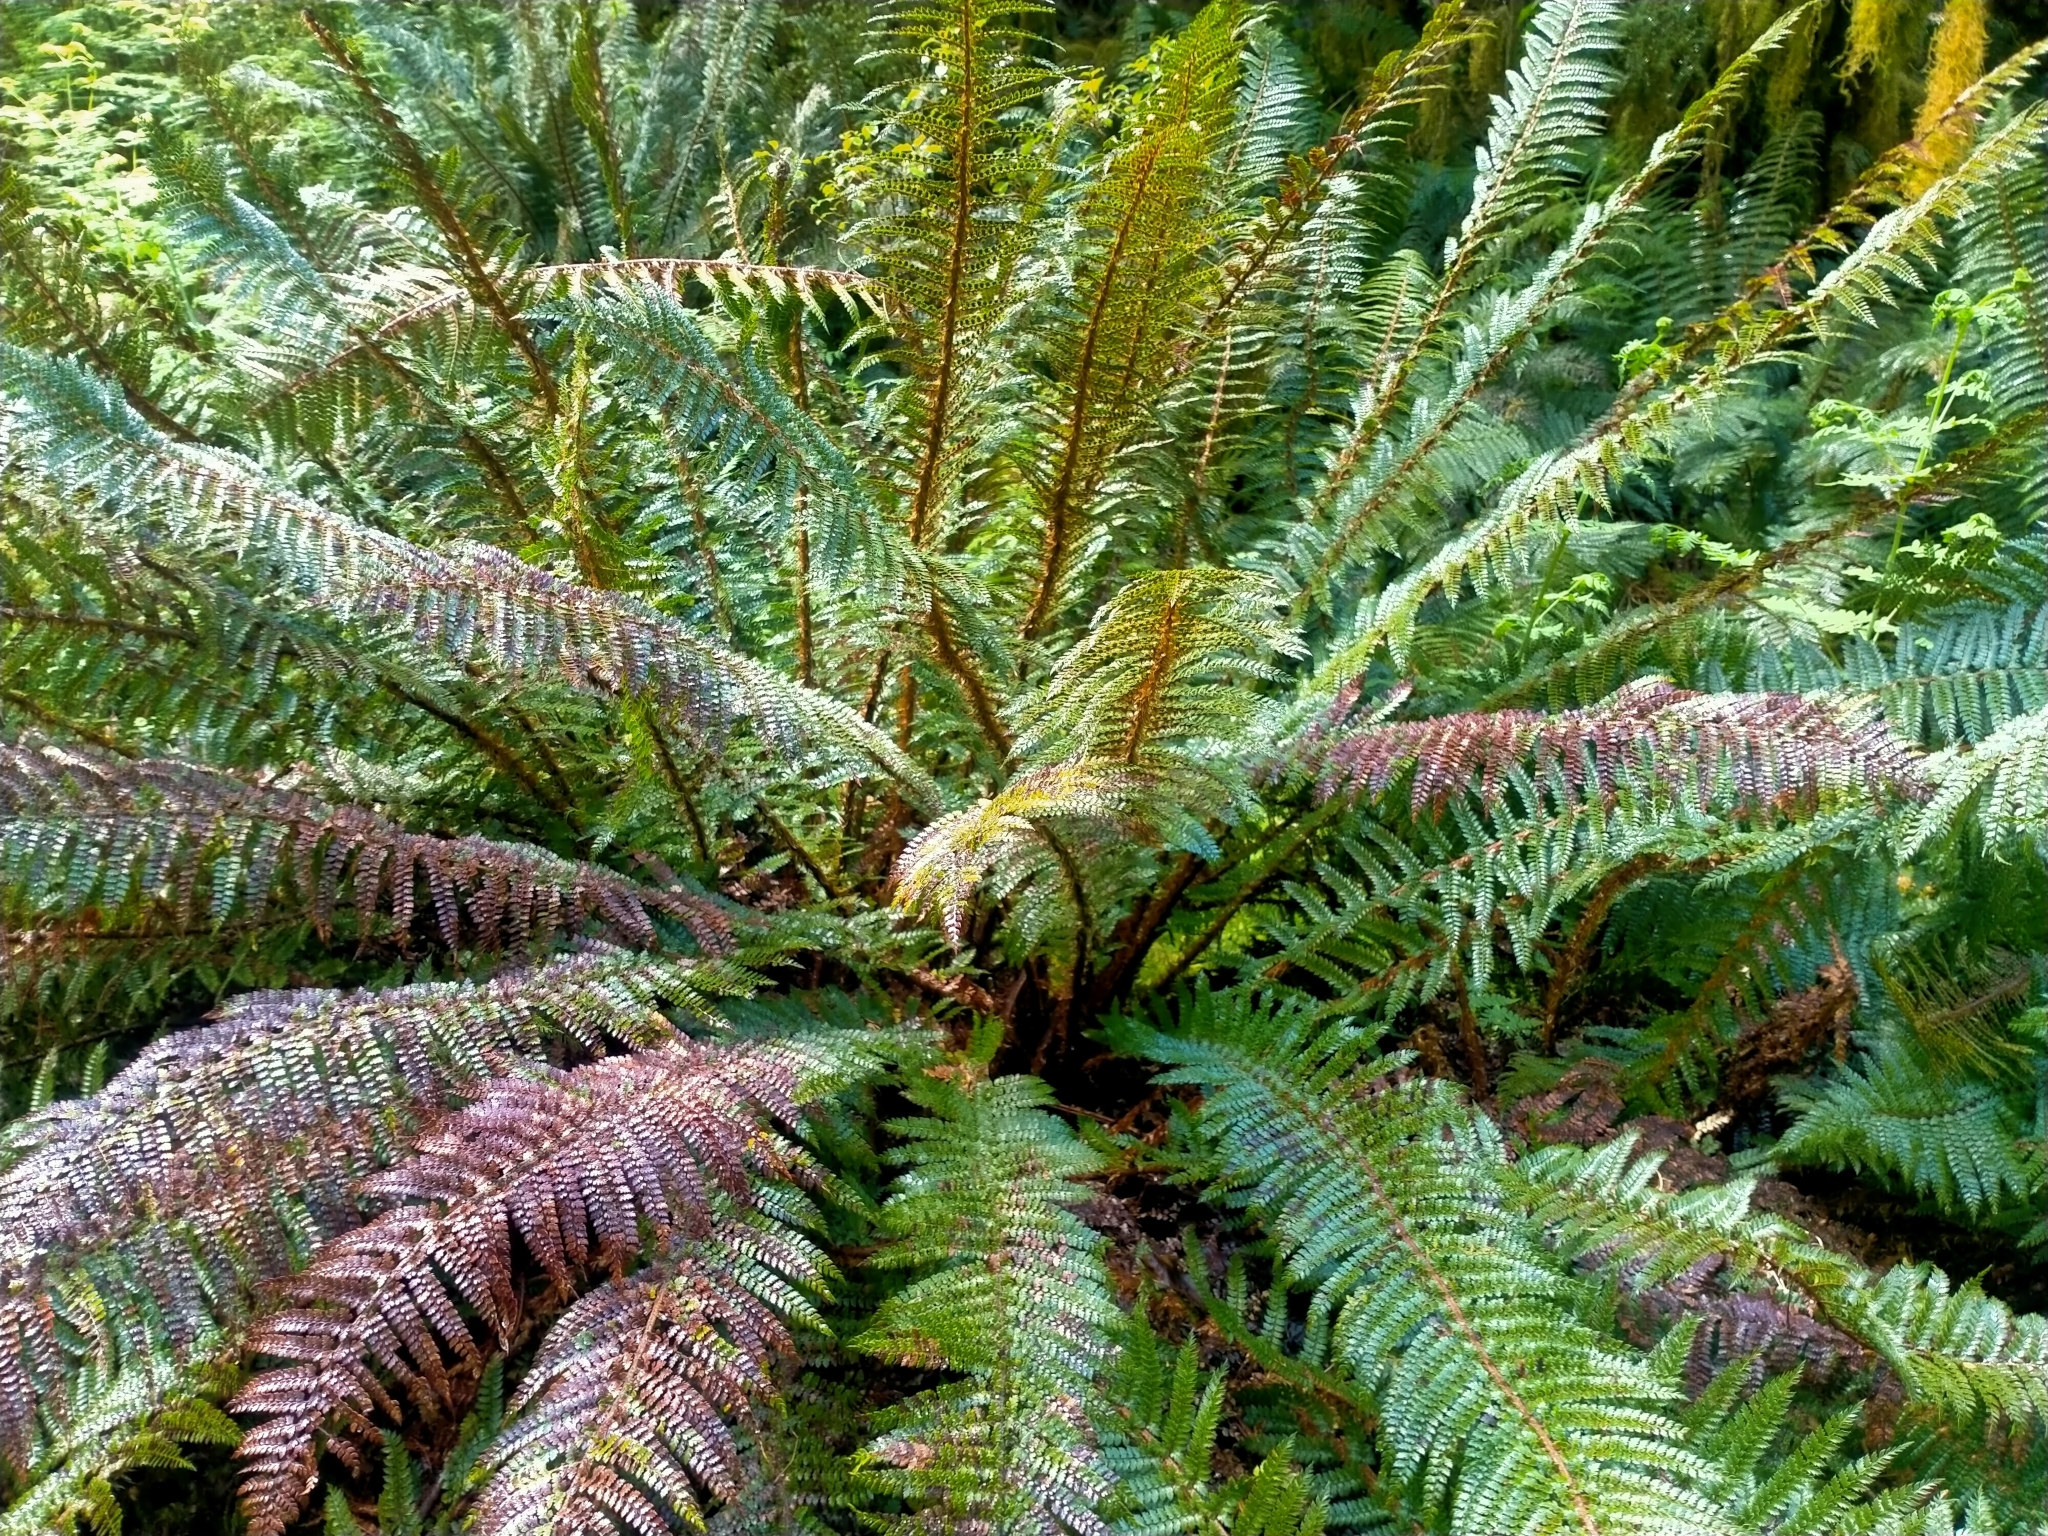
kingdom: Plantae
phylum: Tracheophyta
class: Polypodiopsida
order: Polypodiales
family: Dryopteridaceae
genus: Polystichum
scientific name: Polystichum vestitum
